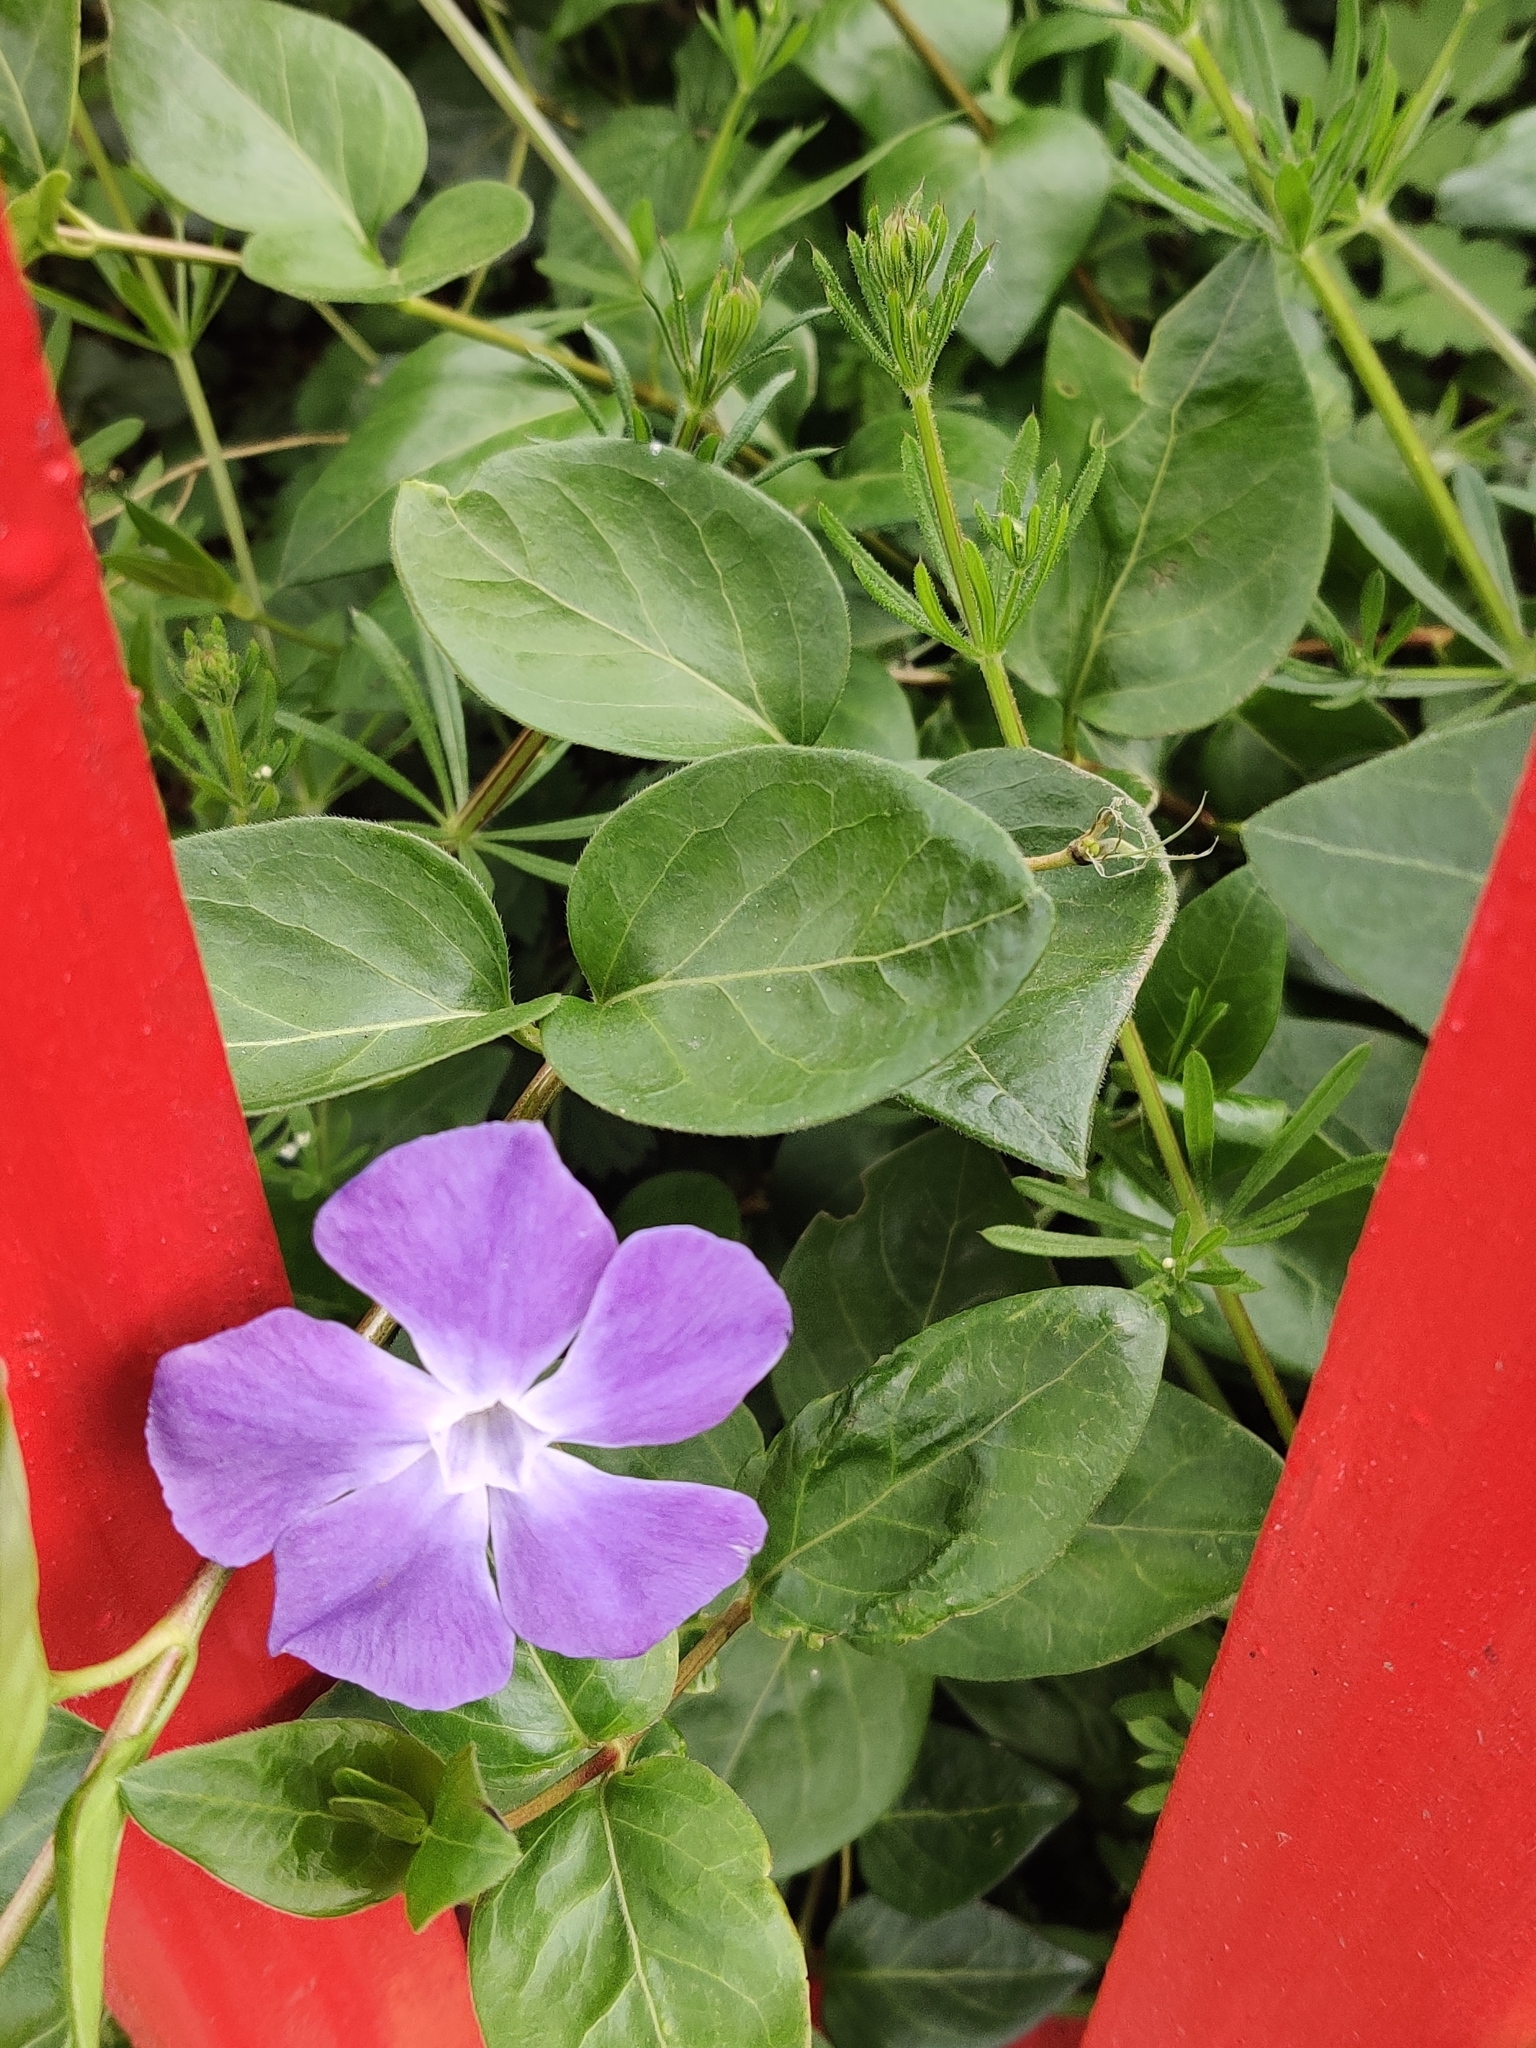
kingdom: Plantae
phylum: Tracheophyta
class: Magnoliopsida
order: Gentianales
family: Apocynaceae
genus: Vinca
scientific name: Vinca major
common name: Greater periwinkle
